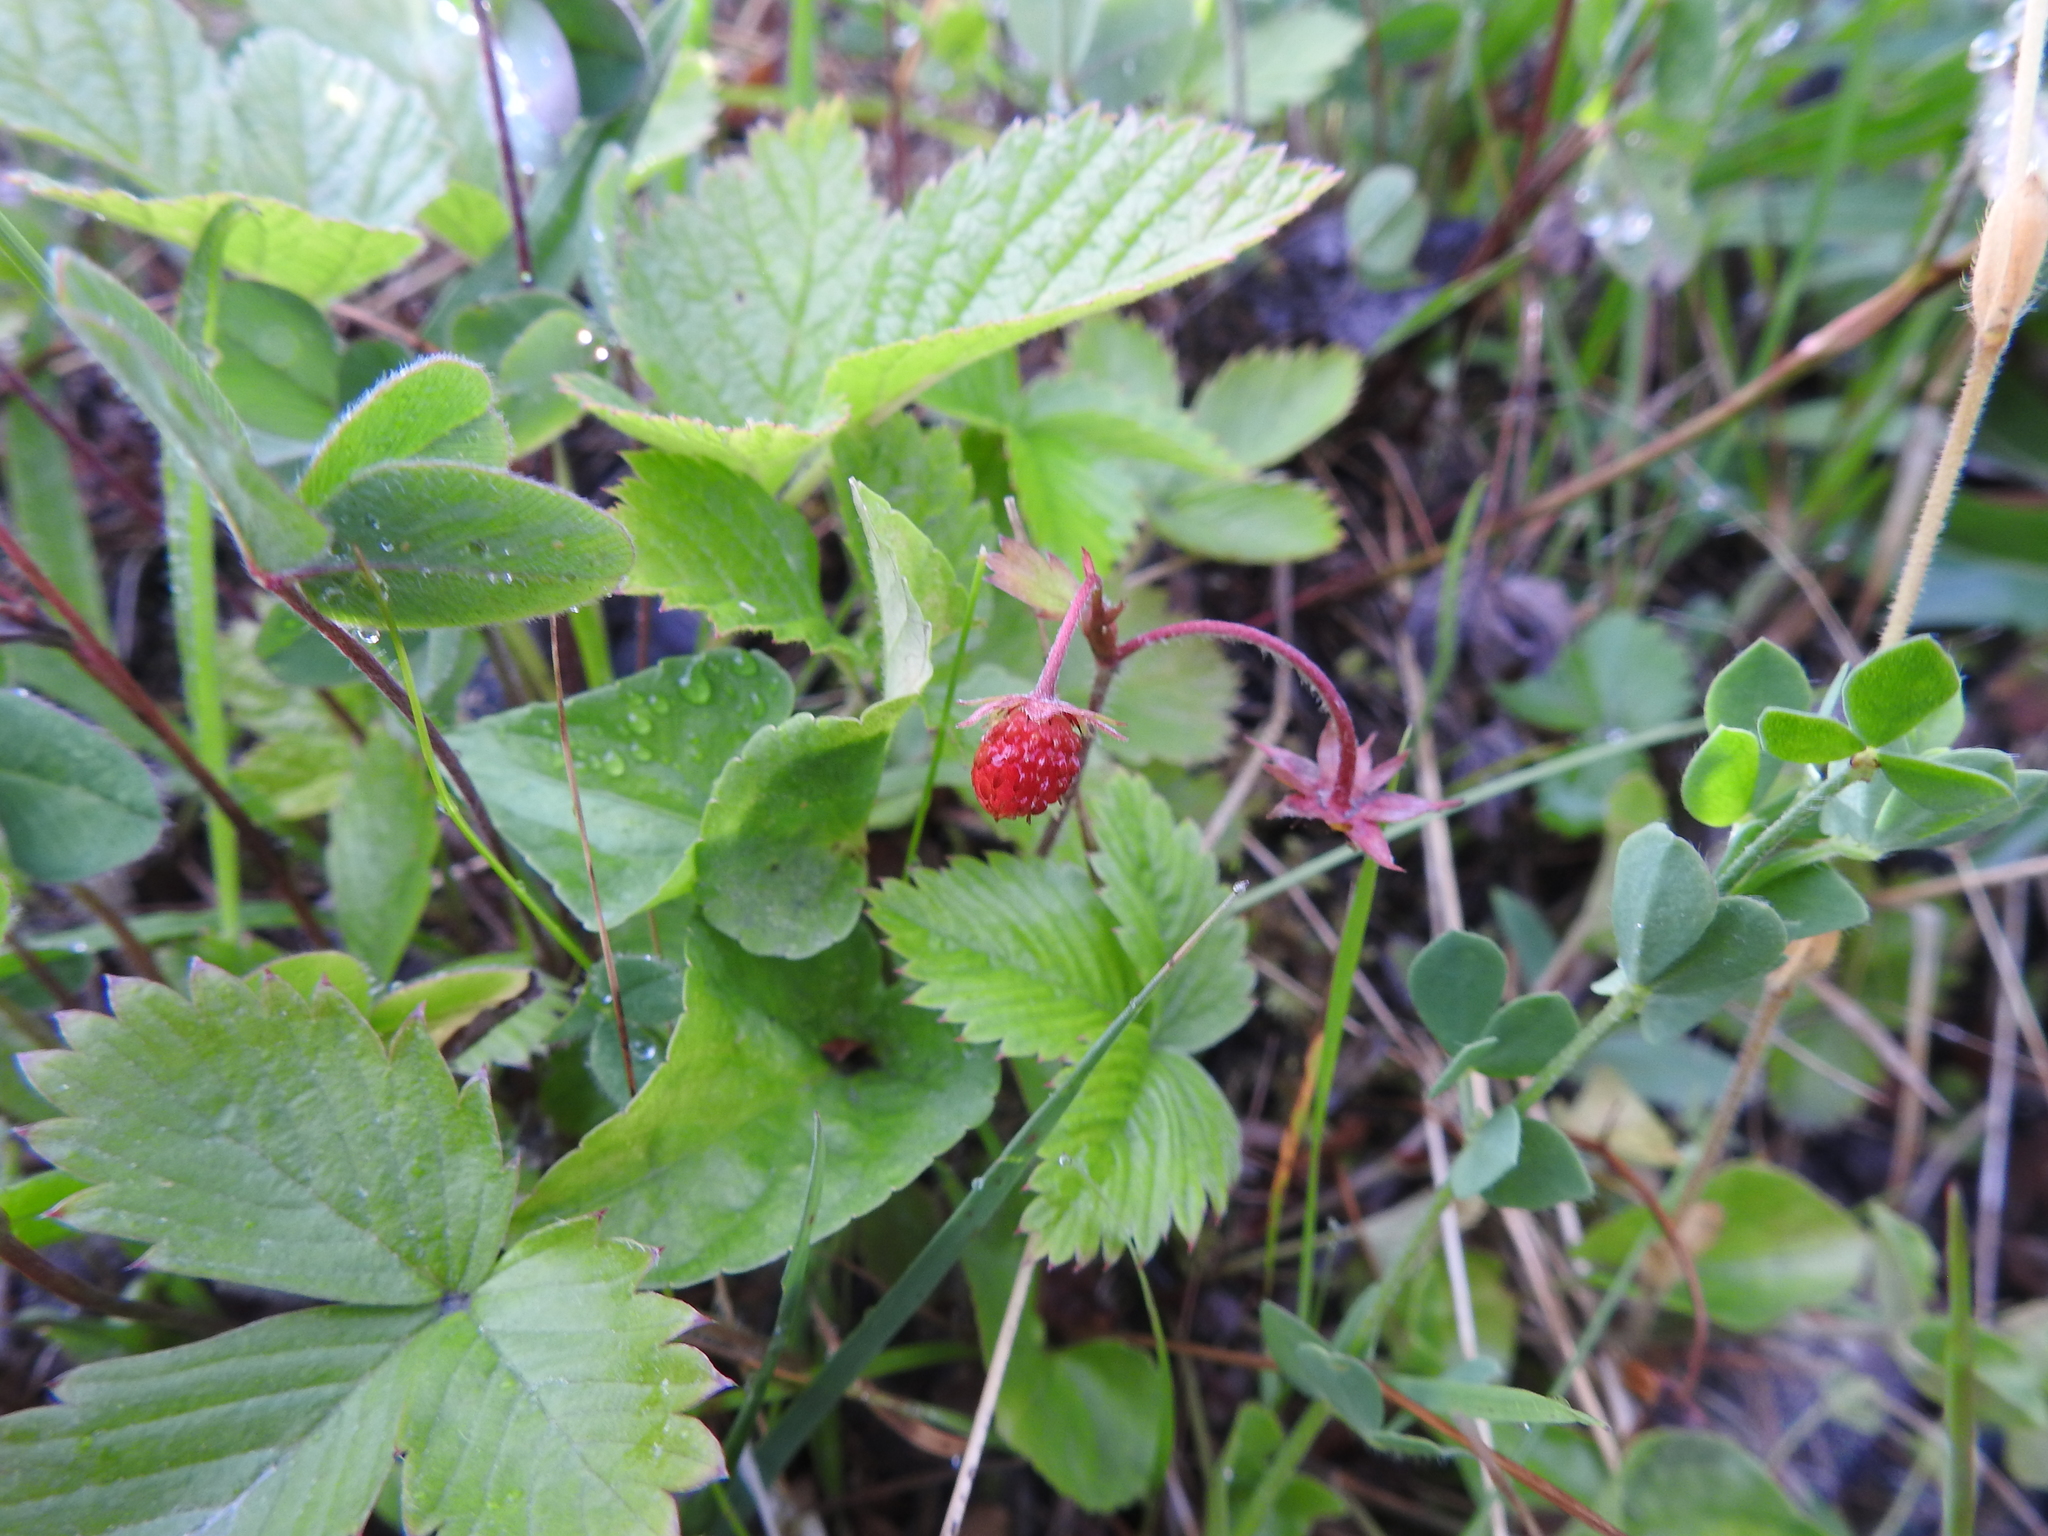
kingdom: Plantae
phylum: Tracheophyta
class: Magnoliopsida
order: Rosales
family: Rosaceae
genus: Fragaria
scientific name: Fragaria vesca
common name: Wild strawberry
